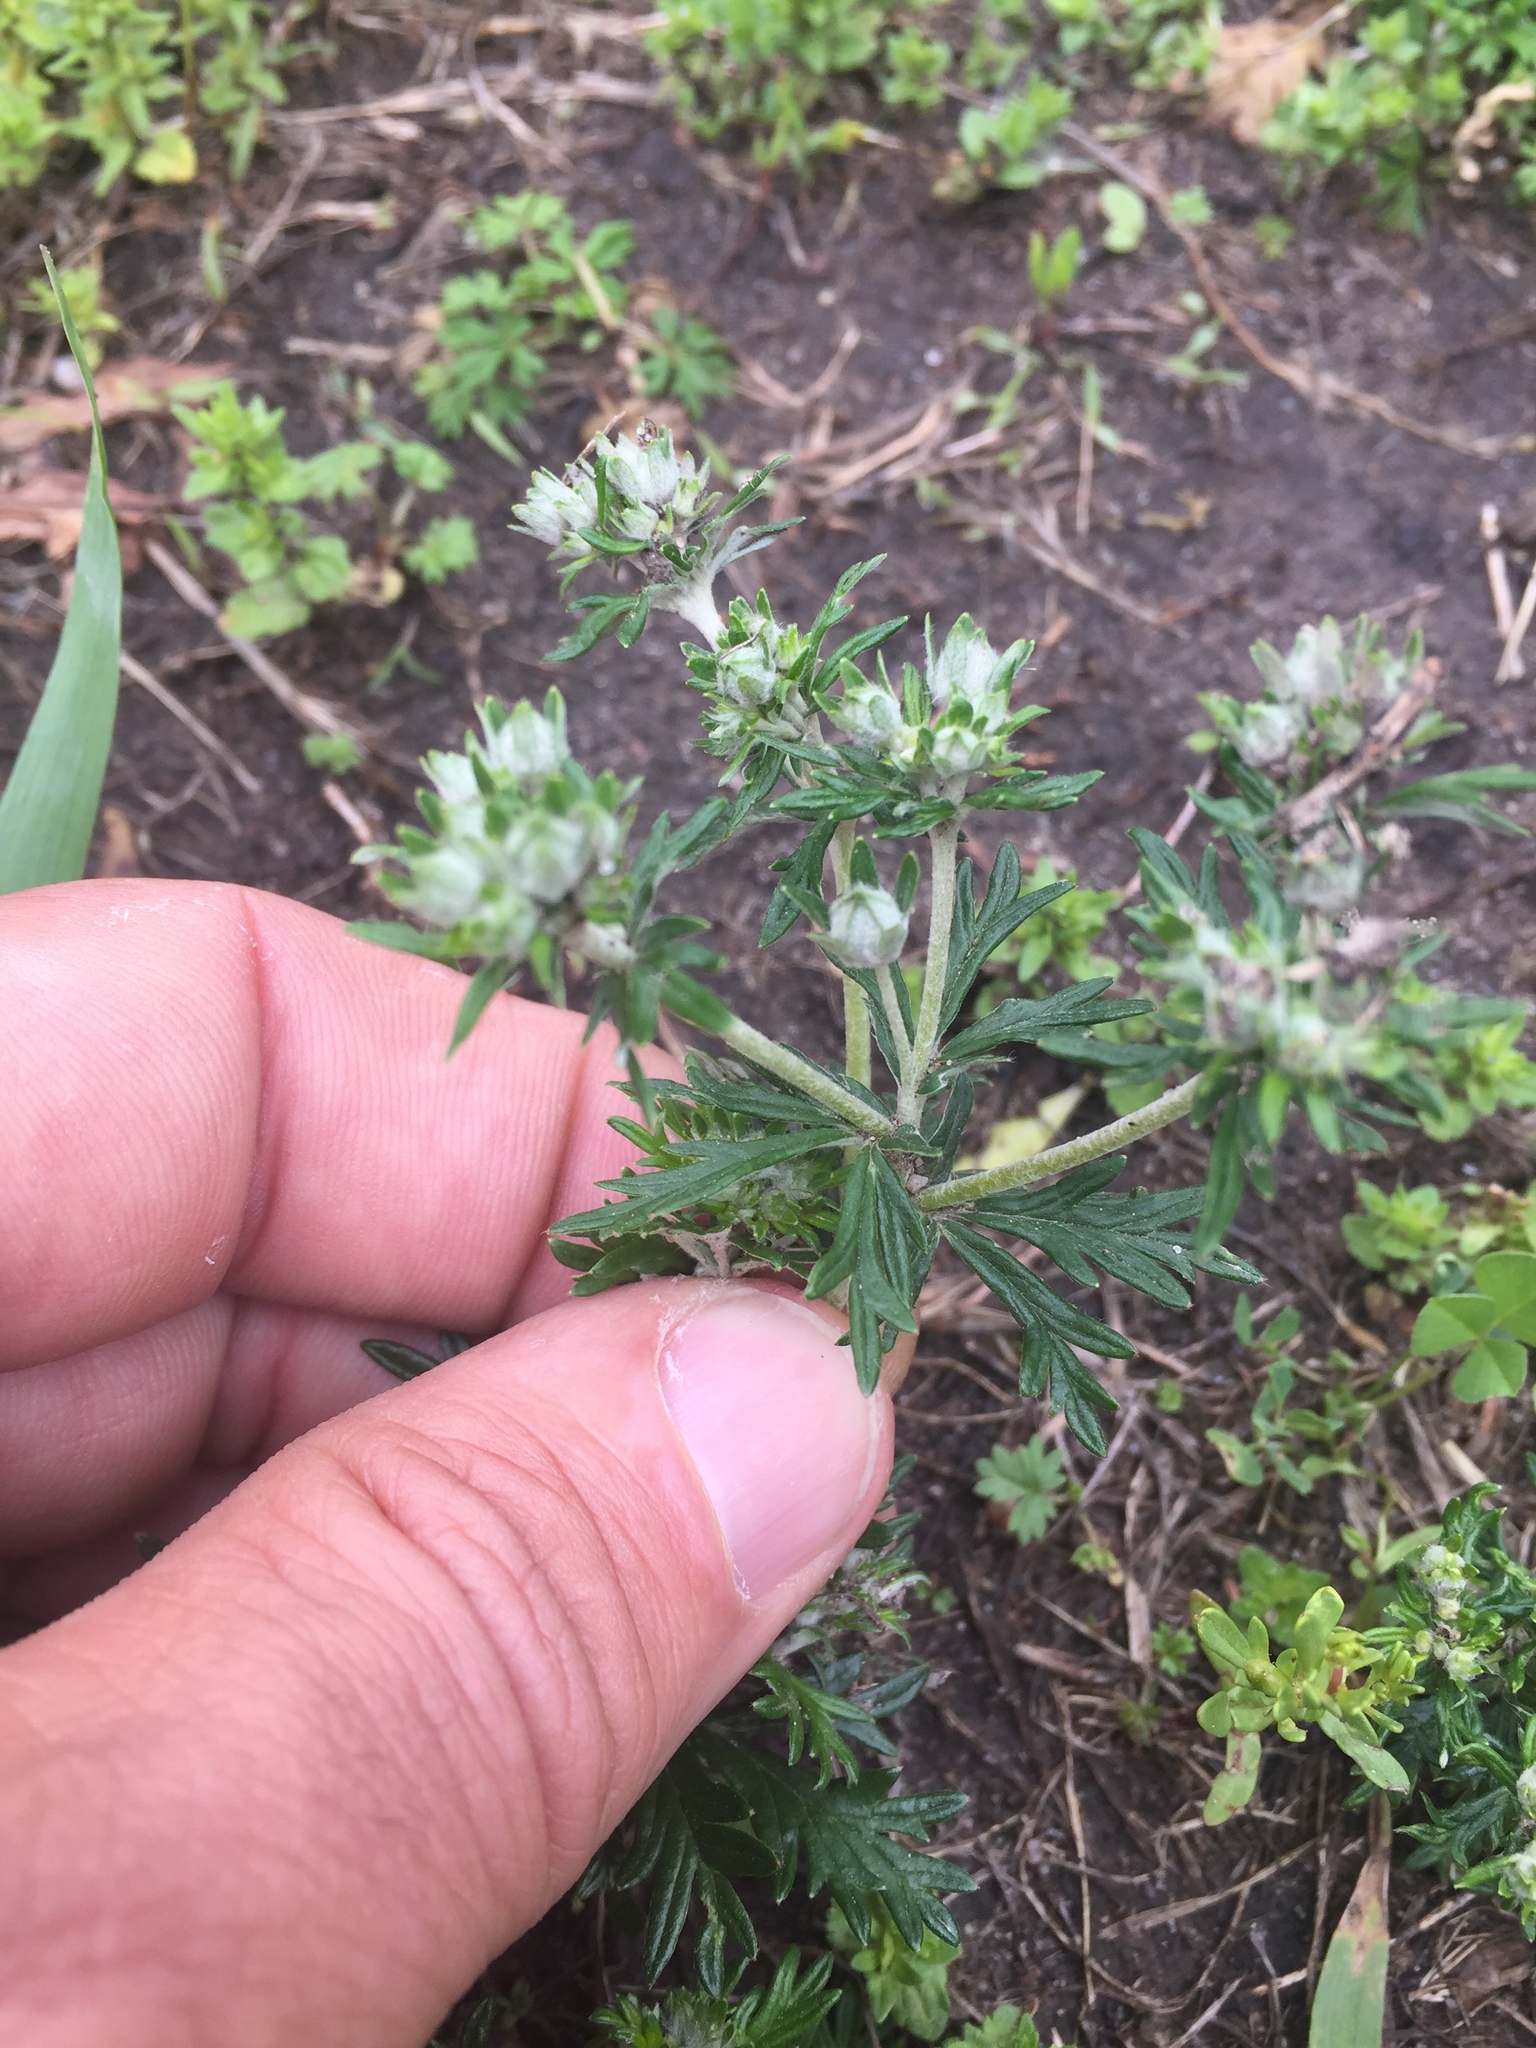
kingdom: Plantae
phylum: Tracheophyta
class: Magnoliopsida
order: Rosales
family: Rosaceae
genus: Potentilla
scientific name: Potentilla argentea
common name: Hoary cinquefoil
